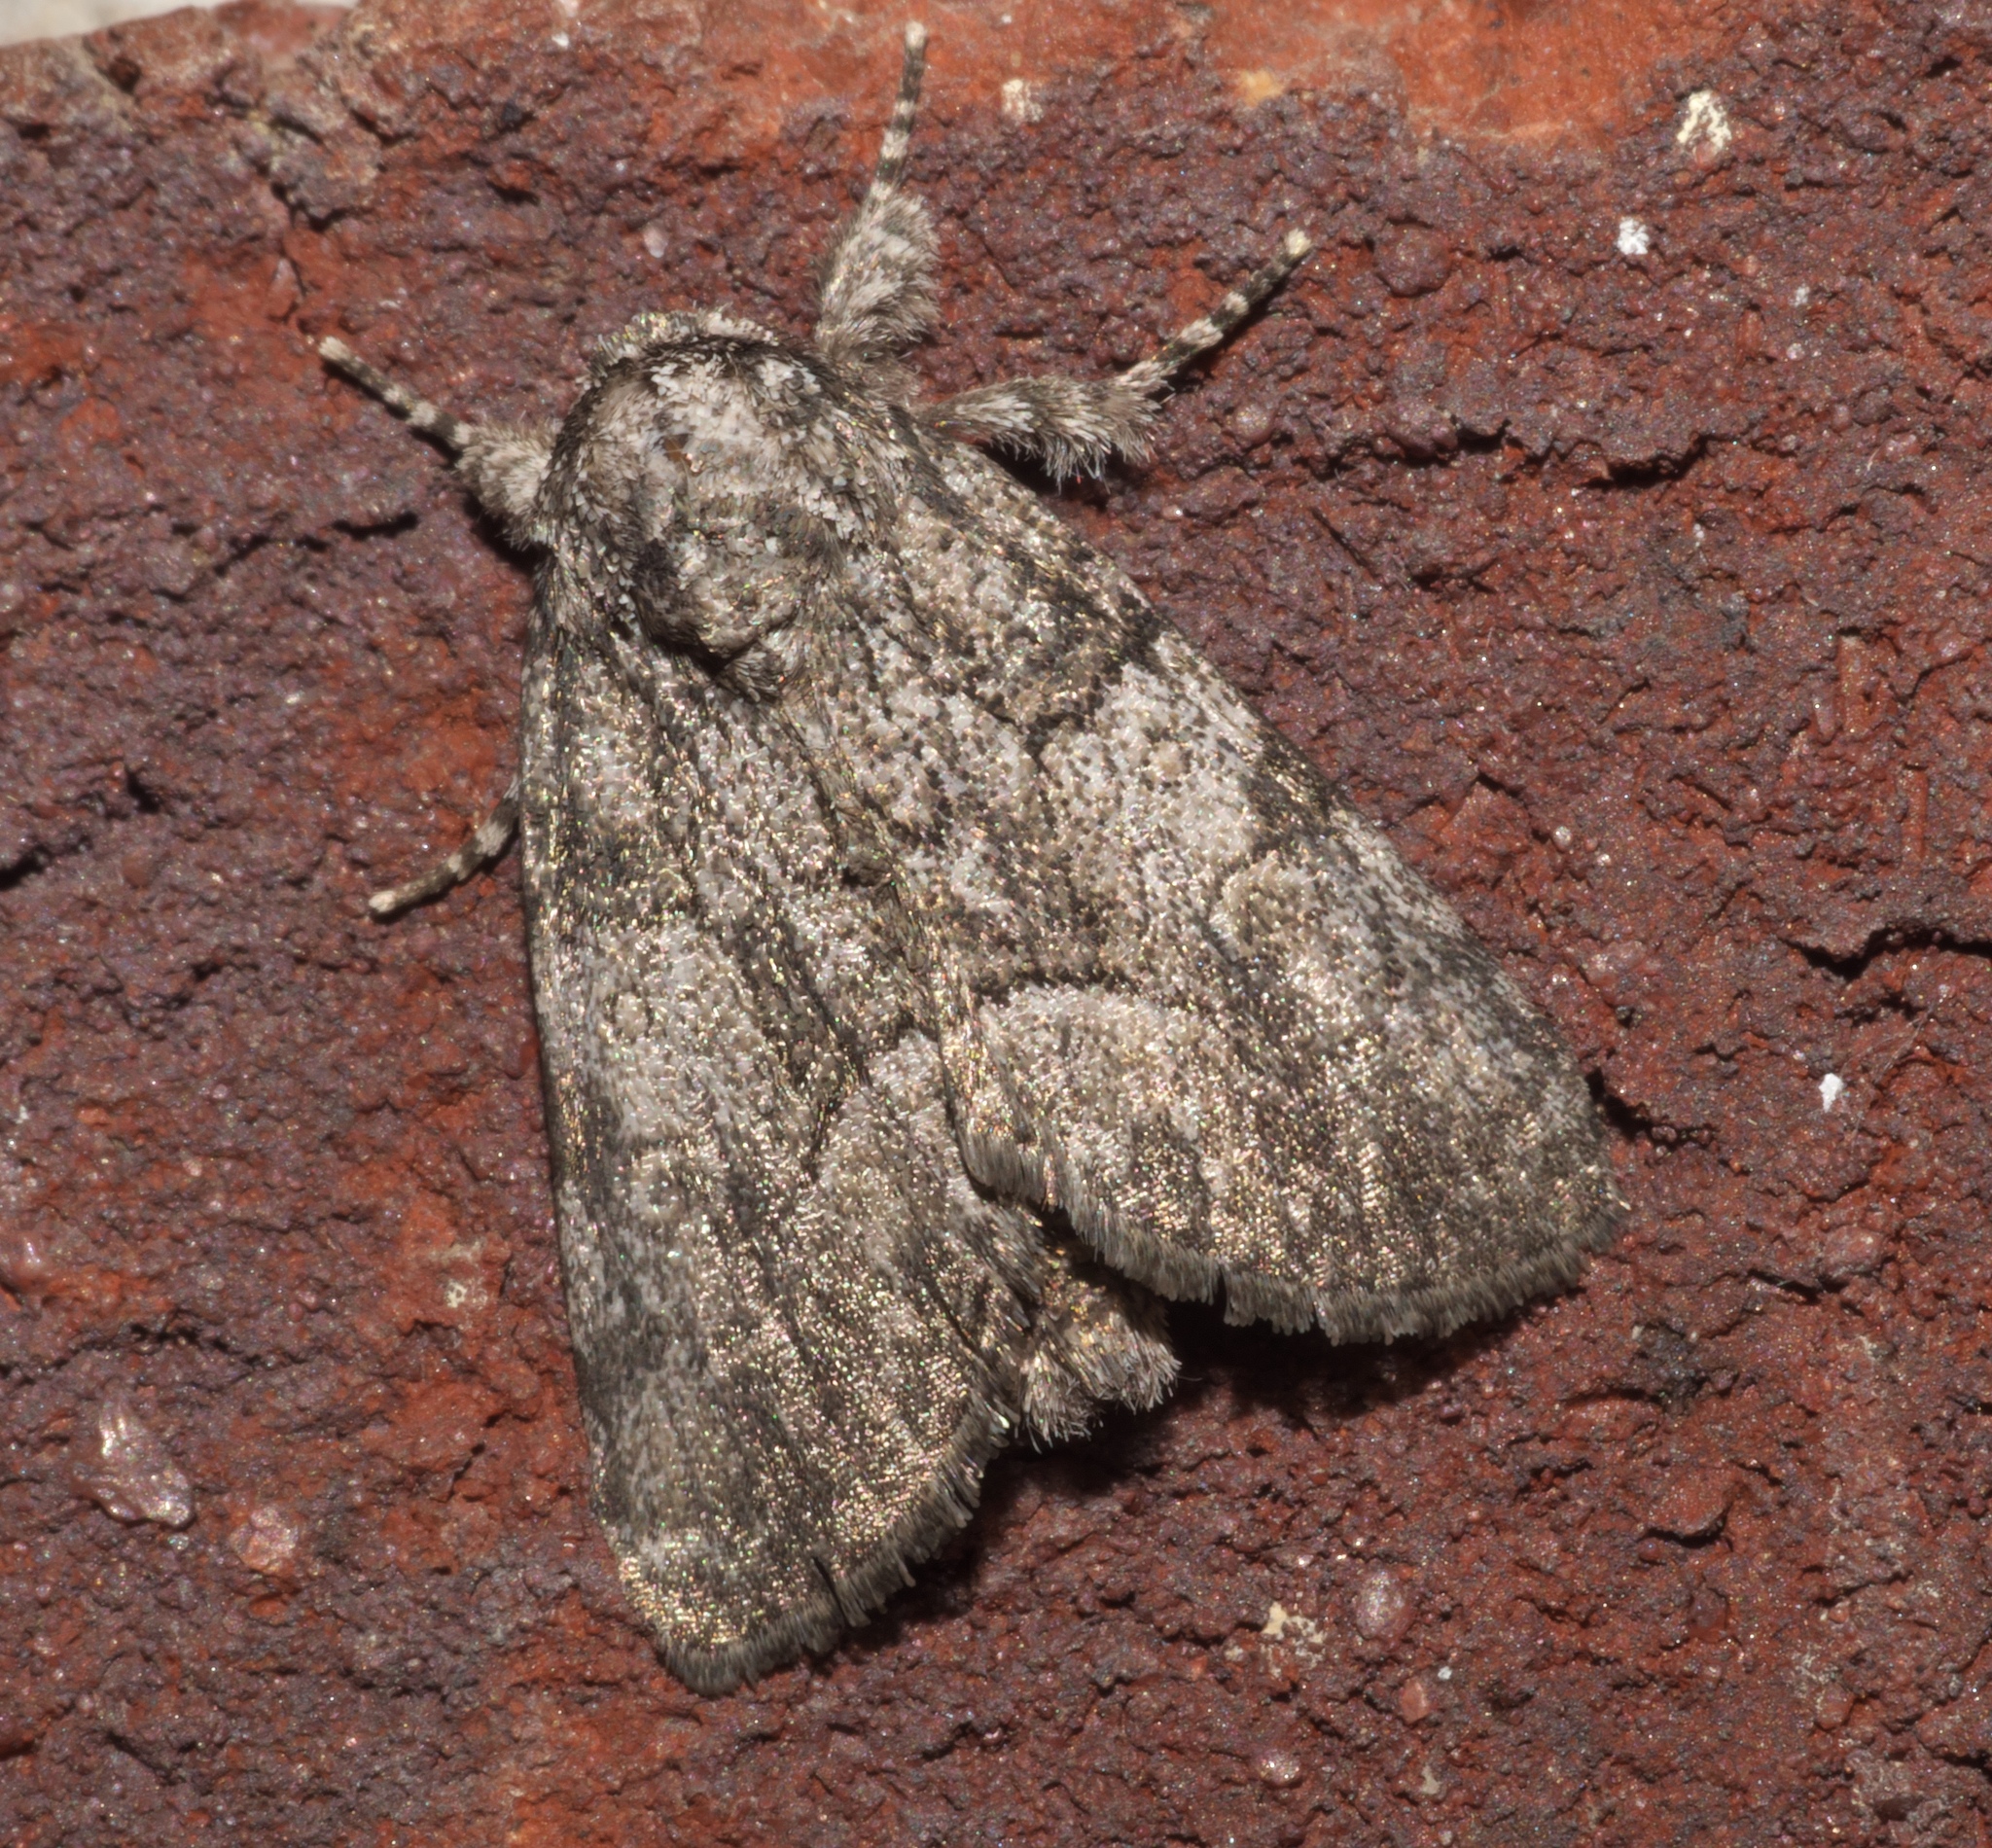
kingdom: Animalia
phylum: Arthropoda
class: Insecta
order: Lepidoptera
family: Noctuidae
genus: Raphia
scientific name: Raphia frater
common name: Brother
